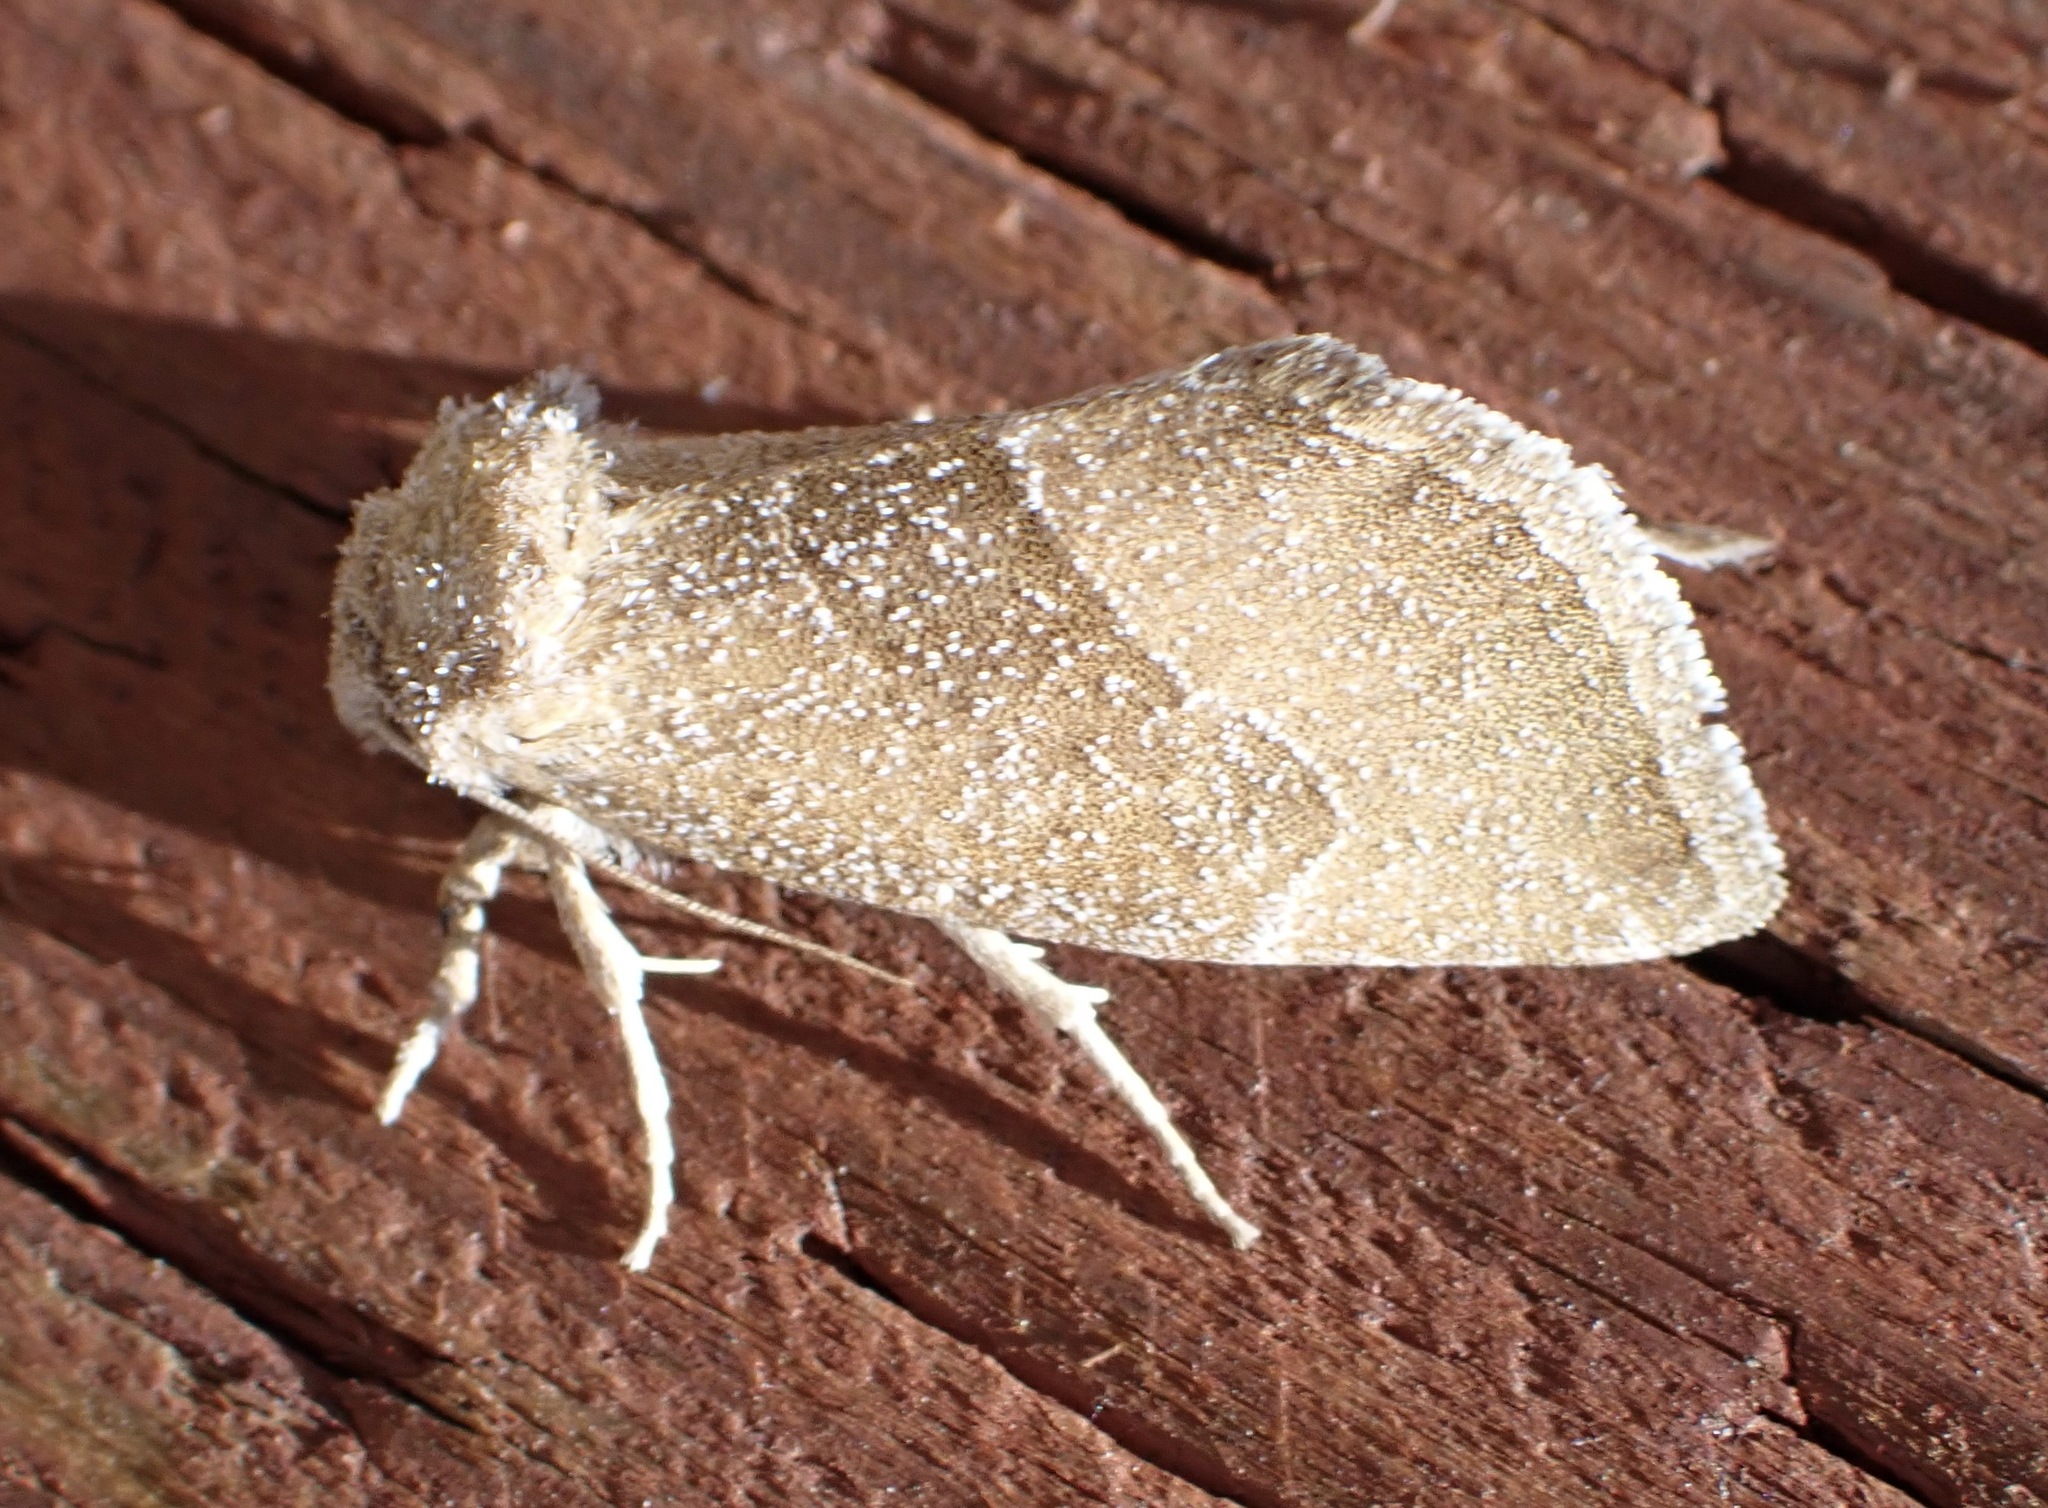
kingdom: Animalia
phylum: Arthropoda
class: Insecta
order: Lepidoptera
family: Noctuidae
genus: Plagiomimicus
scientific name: Plagiomimicus spumosum
